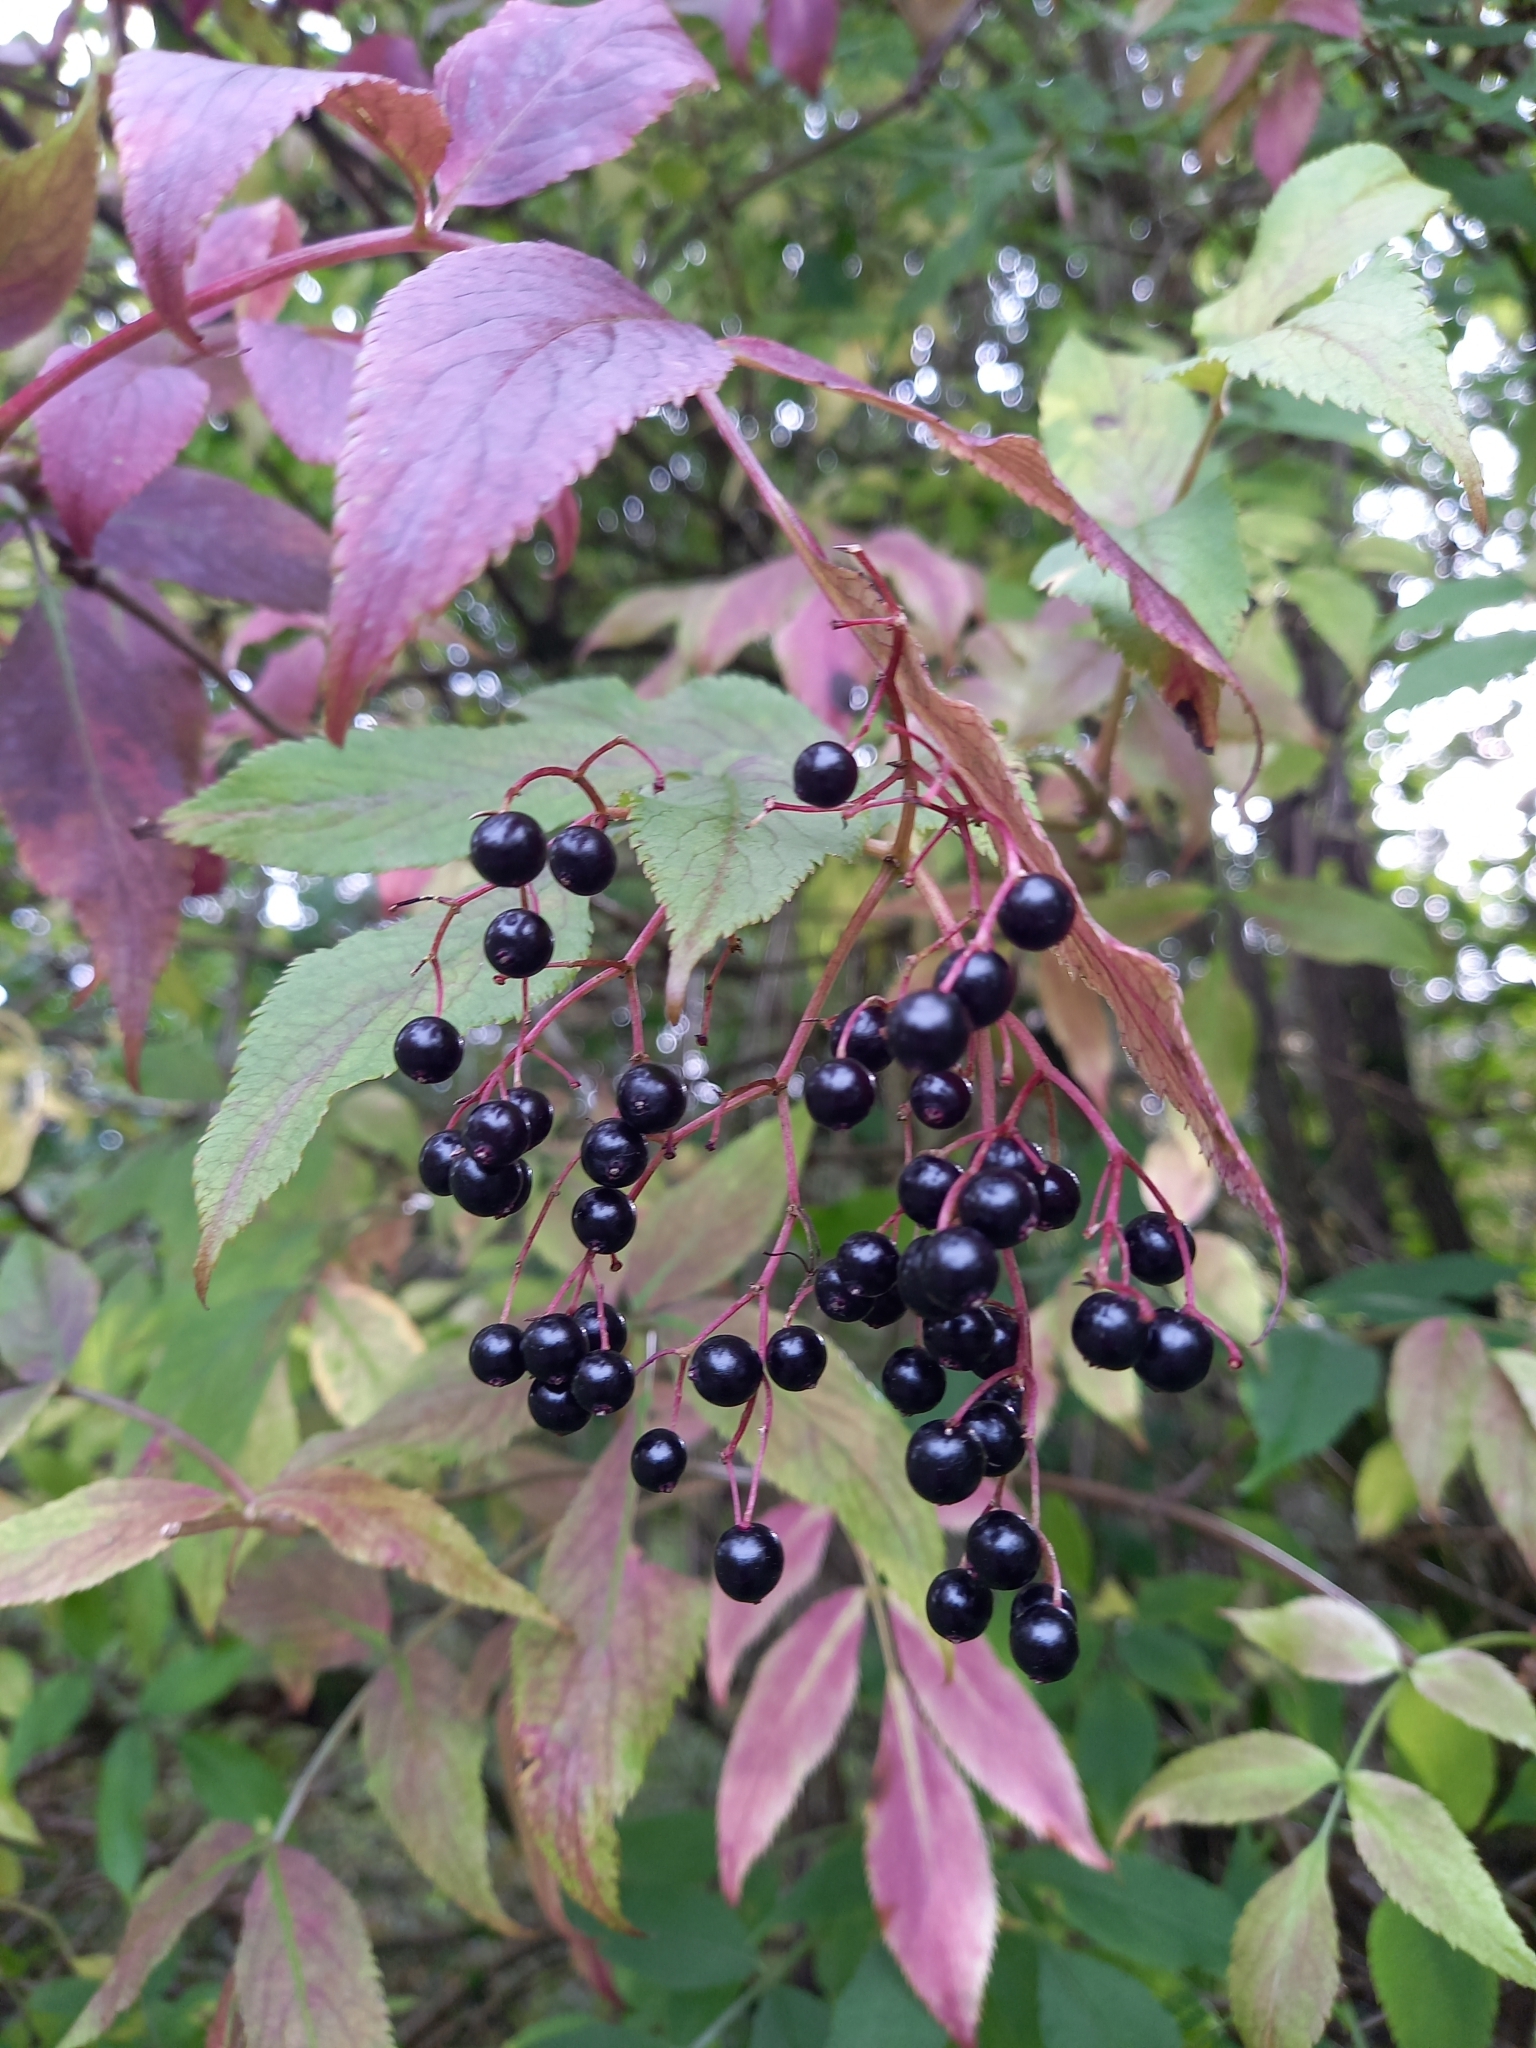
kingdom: Plantae
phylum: Tracheophyta
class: Magnoliopsida
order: Dipsacales
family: Viburnaceae
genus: Sambucus
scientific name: Sambucus nigra
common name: Elder
